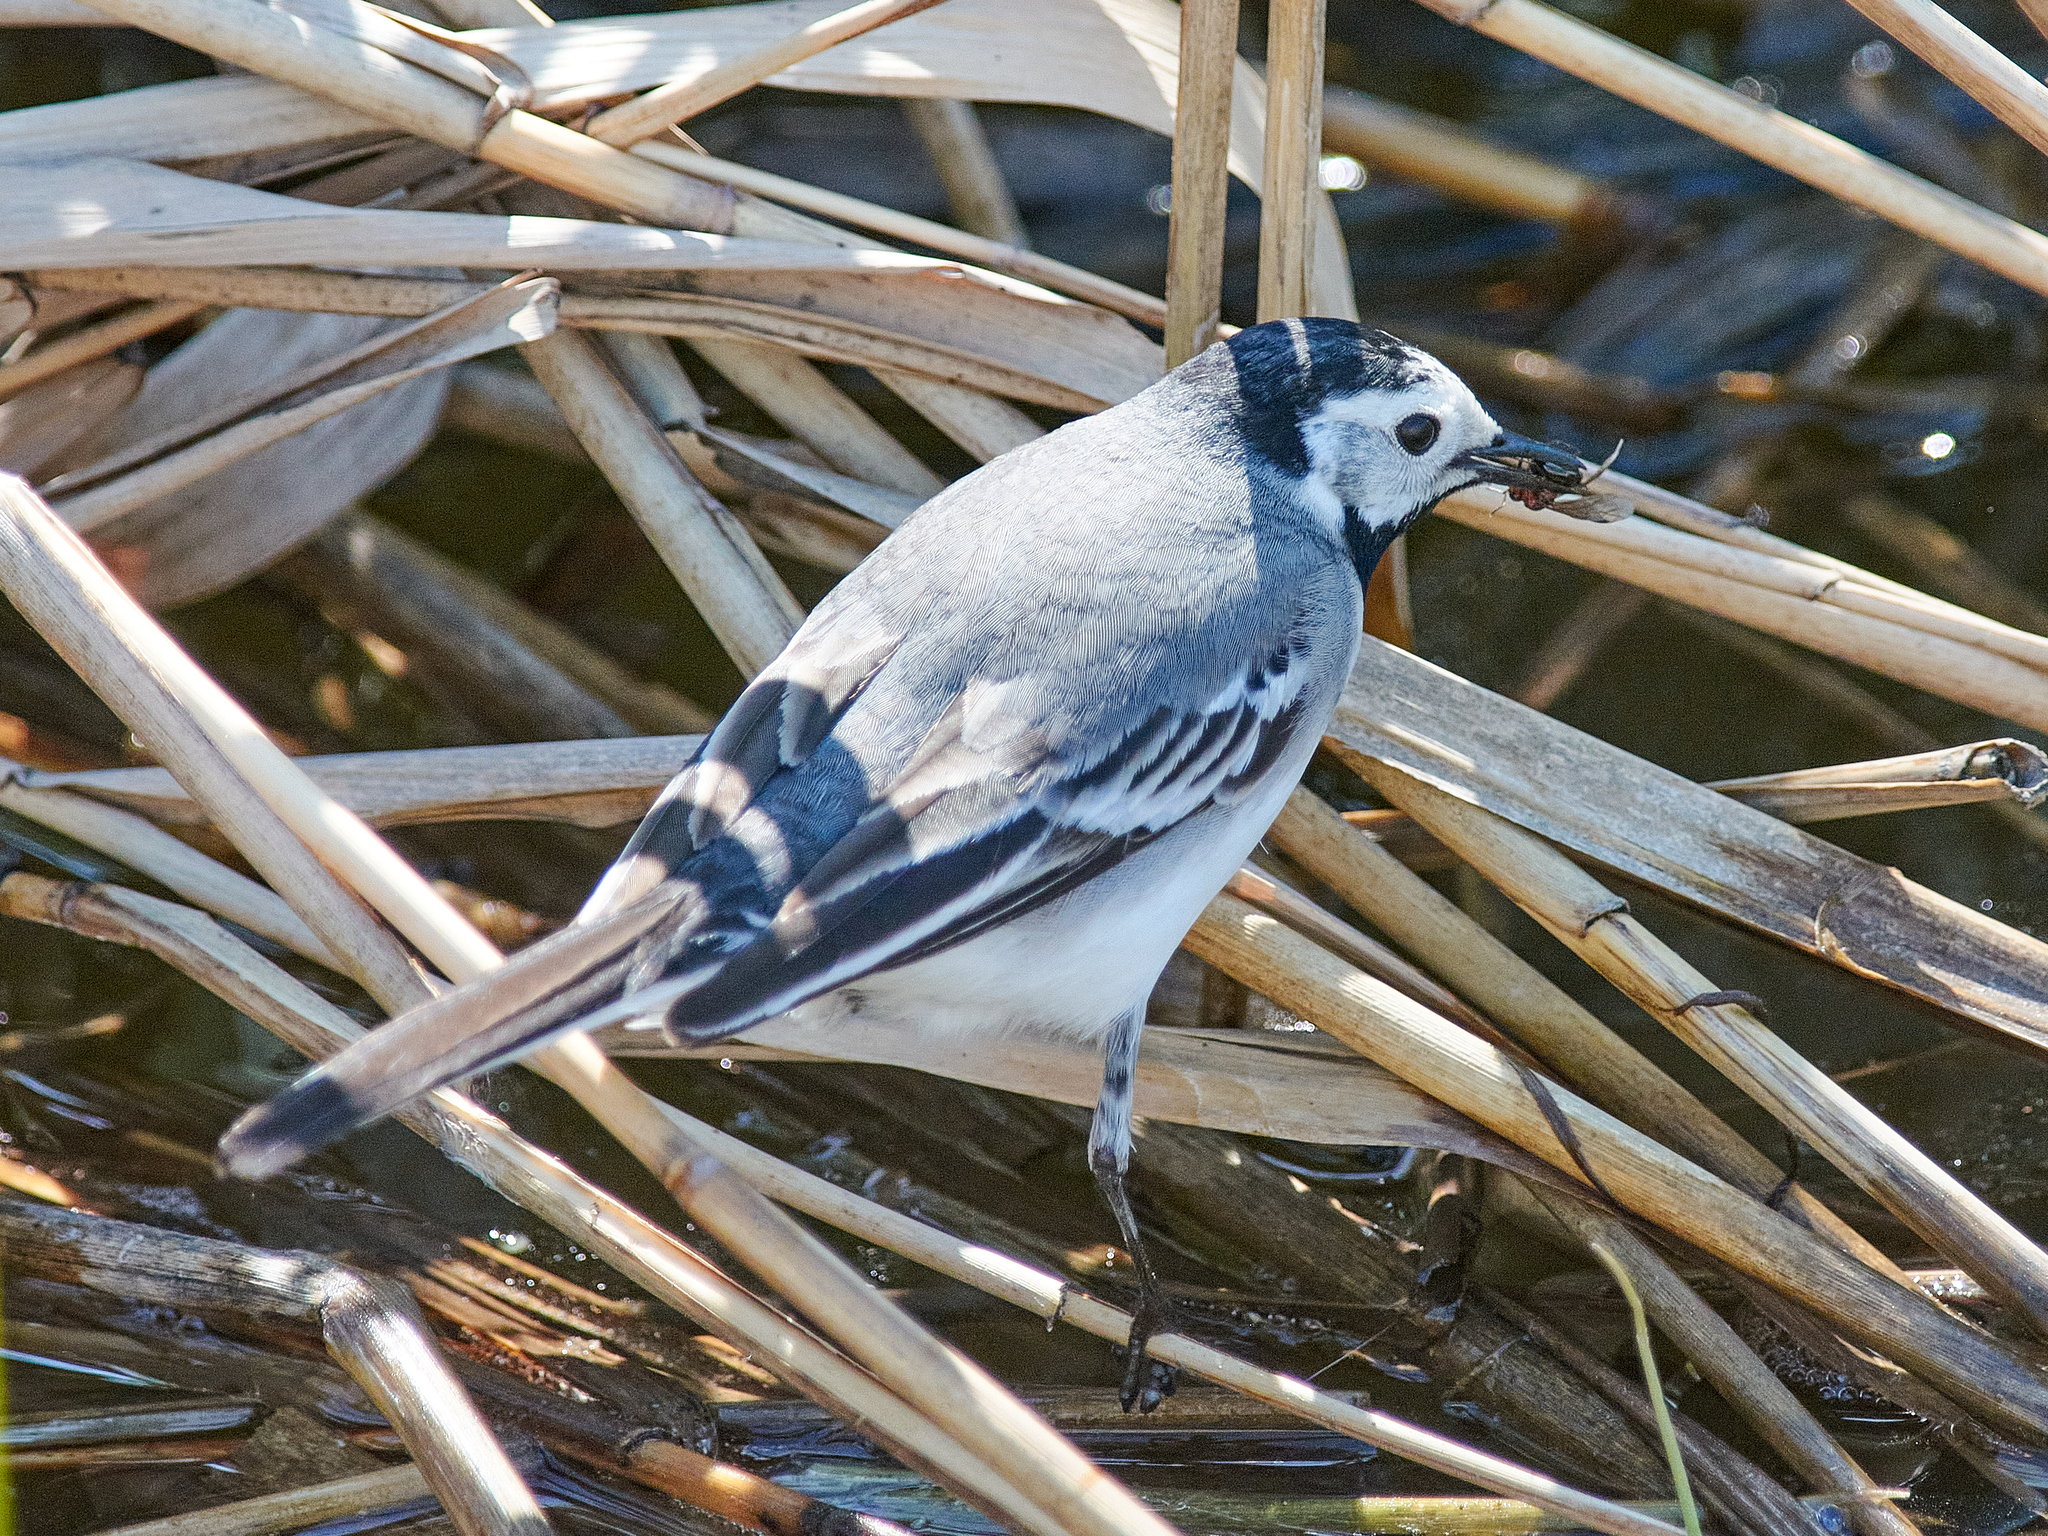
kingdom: Animalia
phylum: Chordata
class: Aves
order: Passeriformes
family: Motacillidae
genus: Motacilla
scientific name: Motacilla alba
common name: White wagtail
